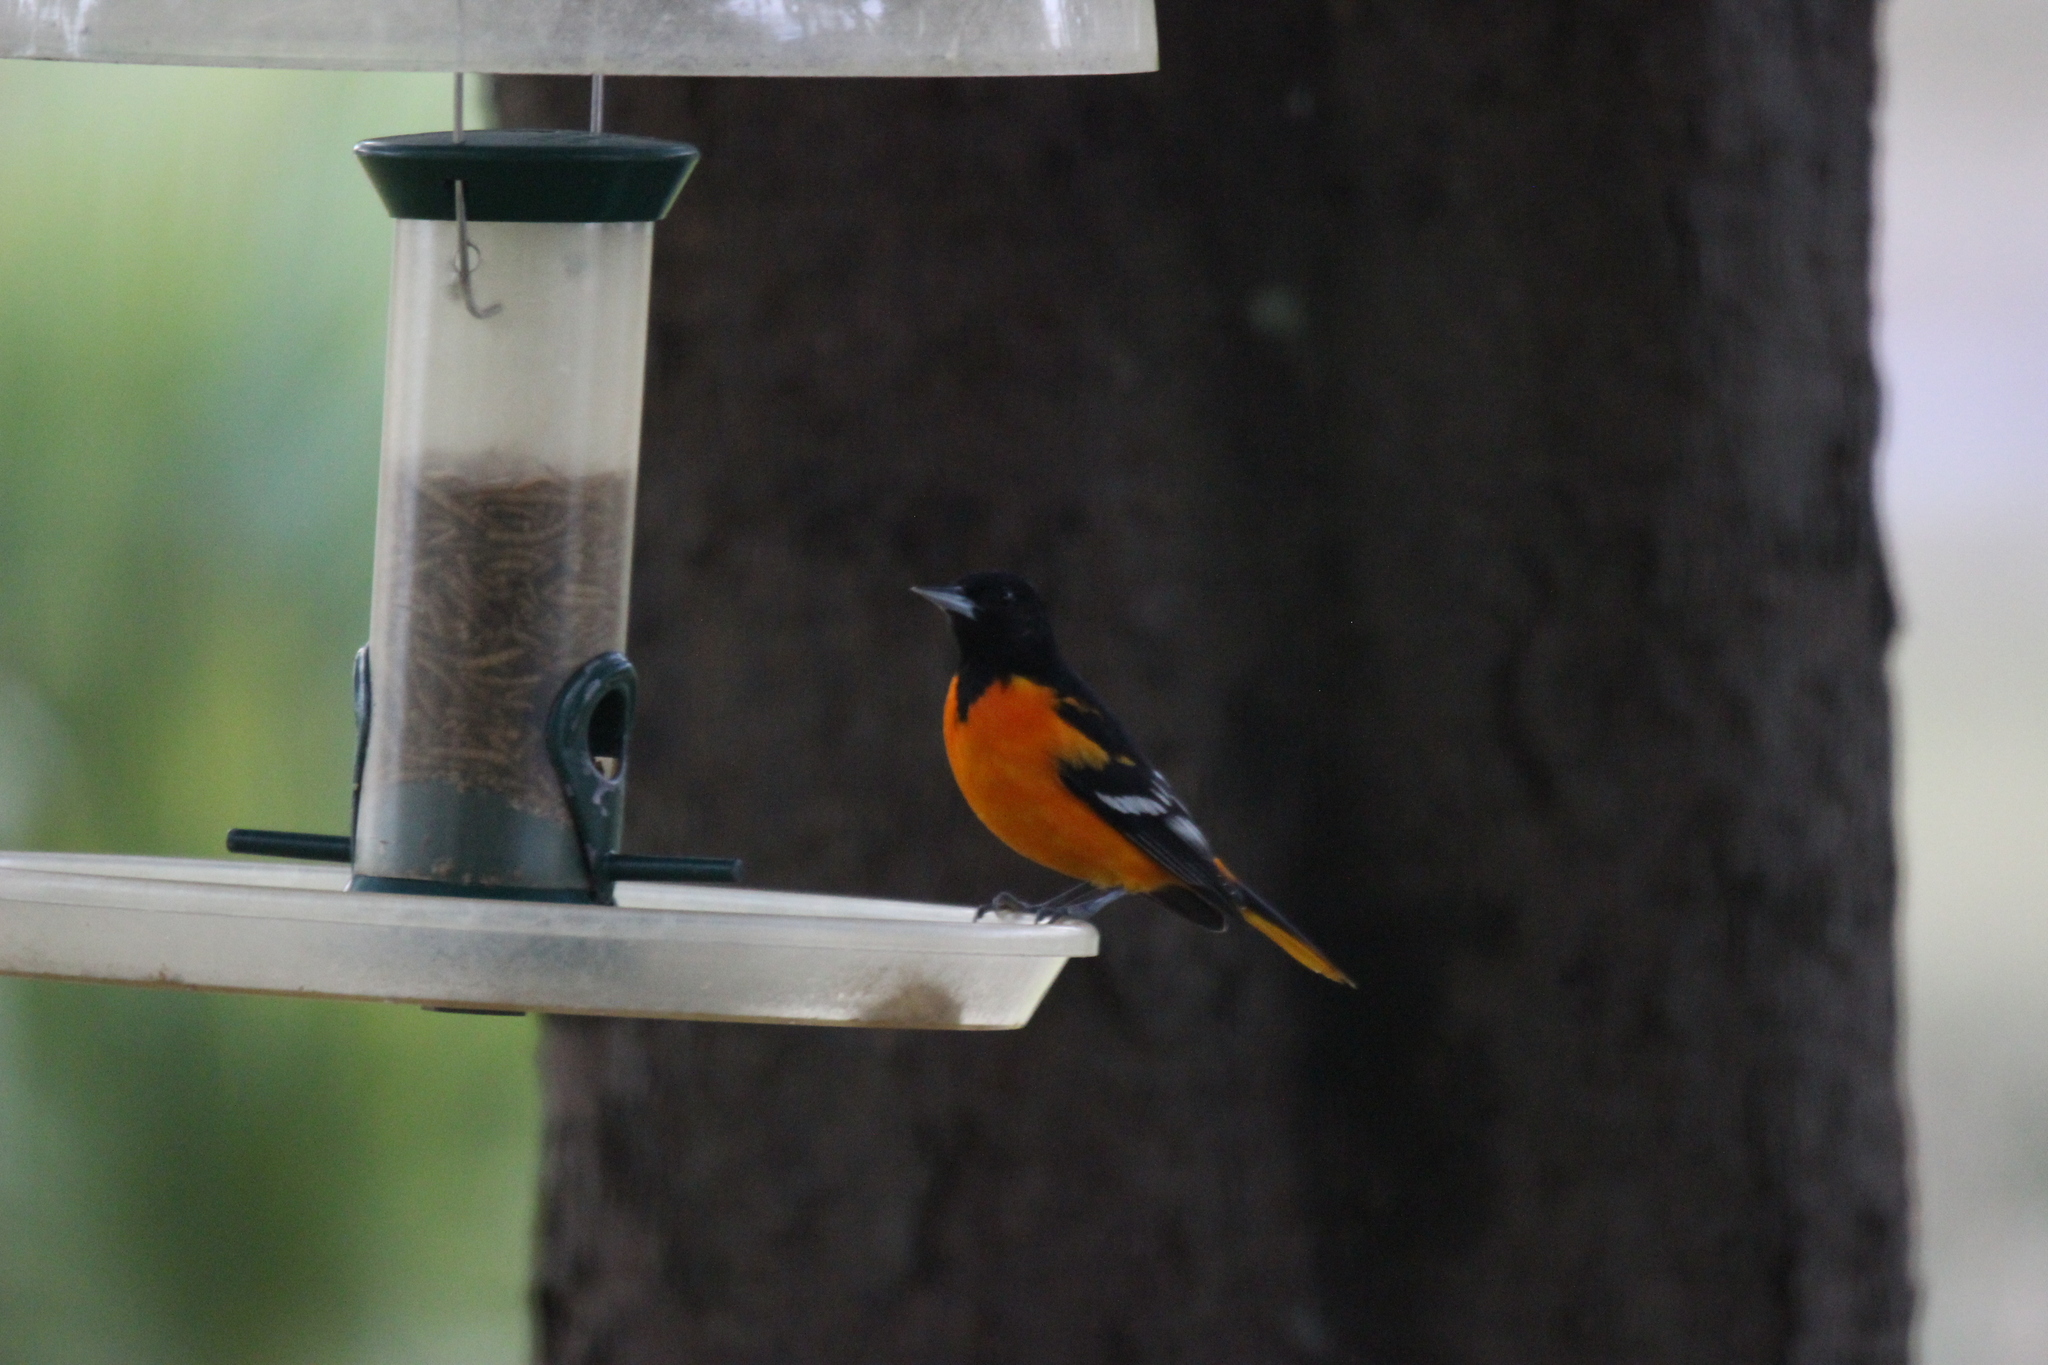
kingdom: Animalia
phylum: Chordata
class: Aves
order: Passeriformes
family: Icteridae
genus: Icterus
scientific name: Icterus galbula
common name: Baltimore oriole
